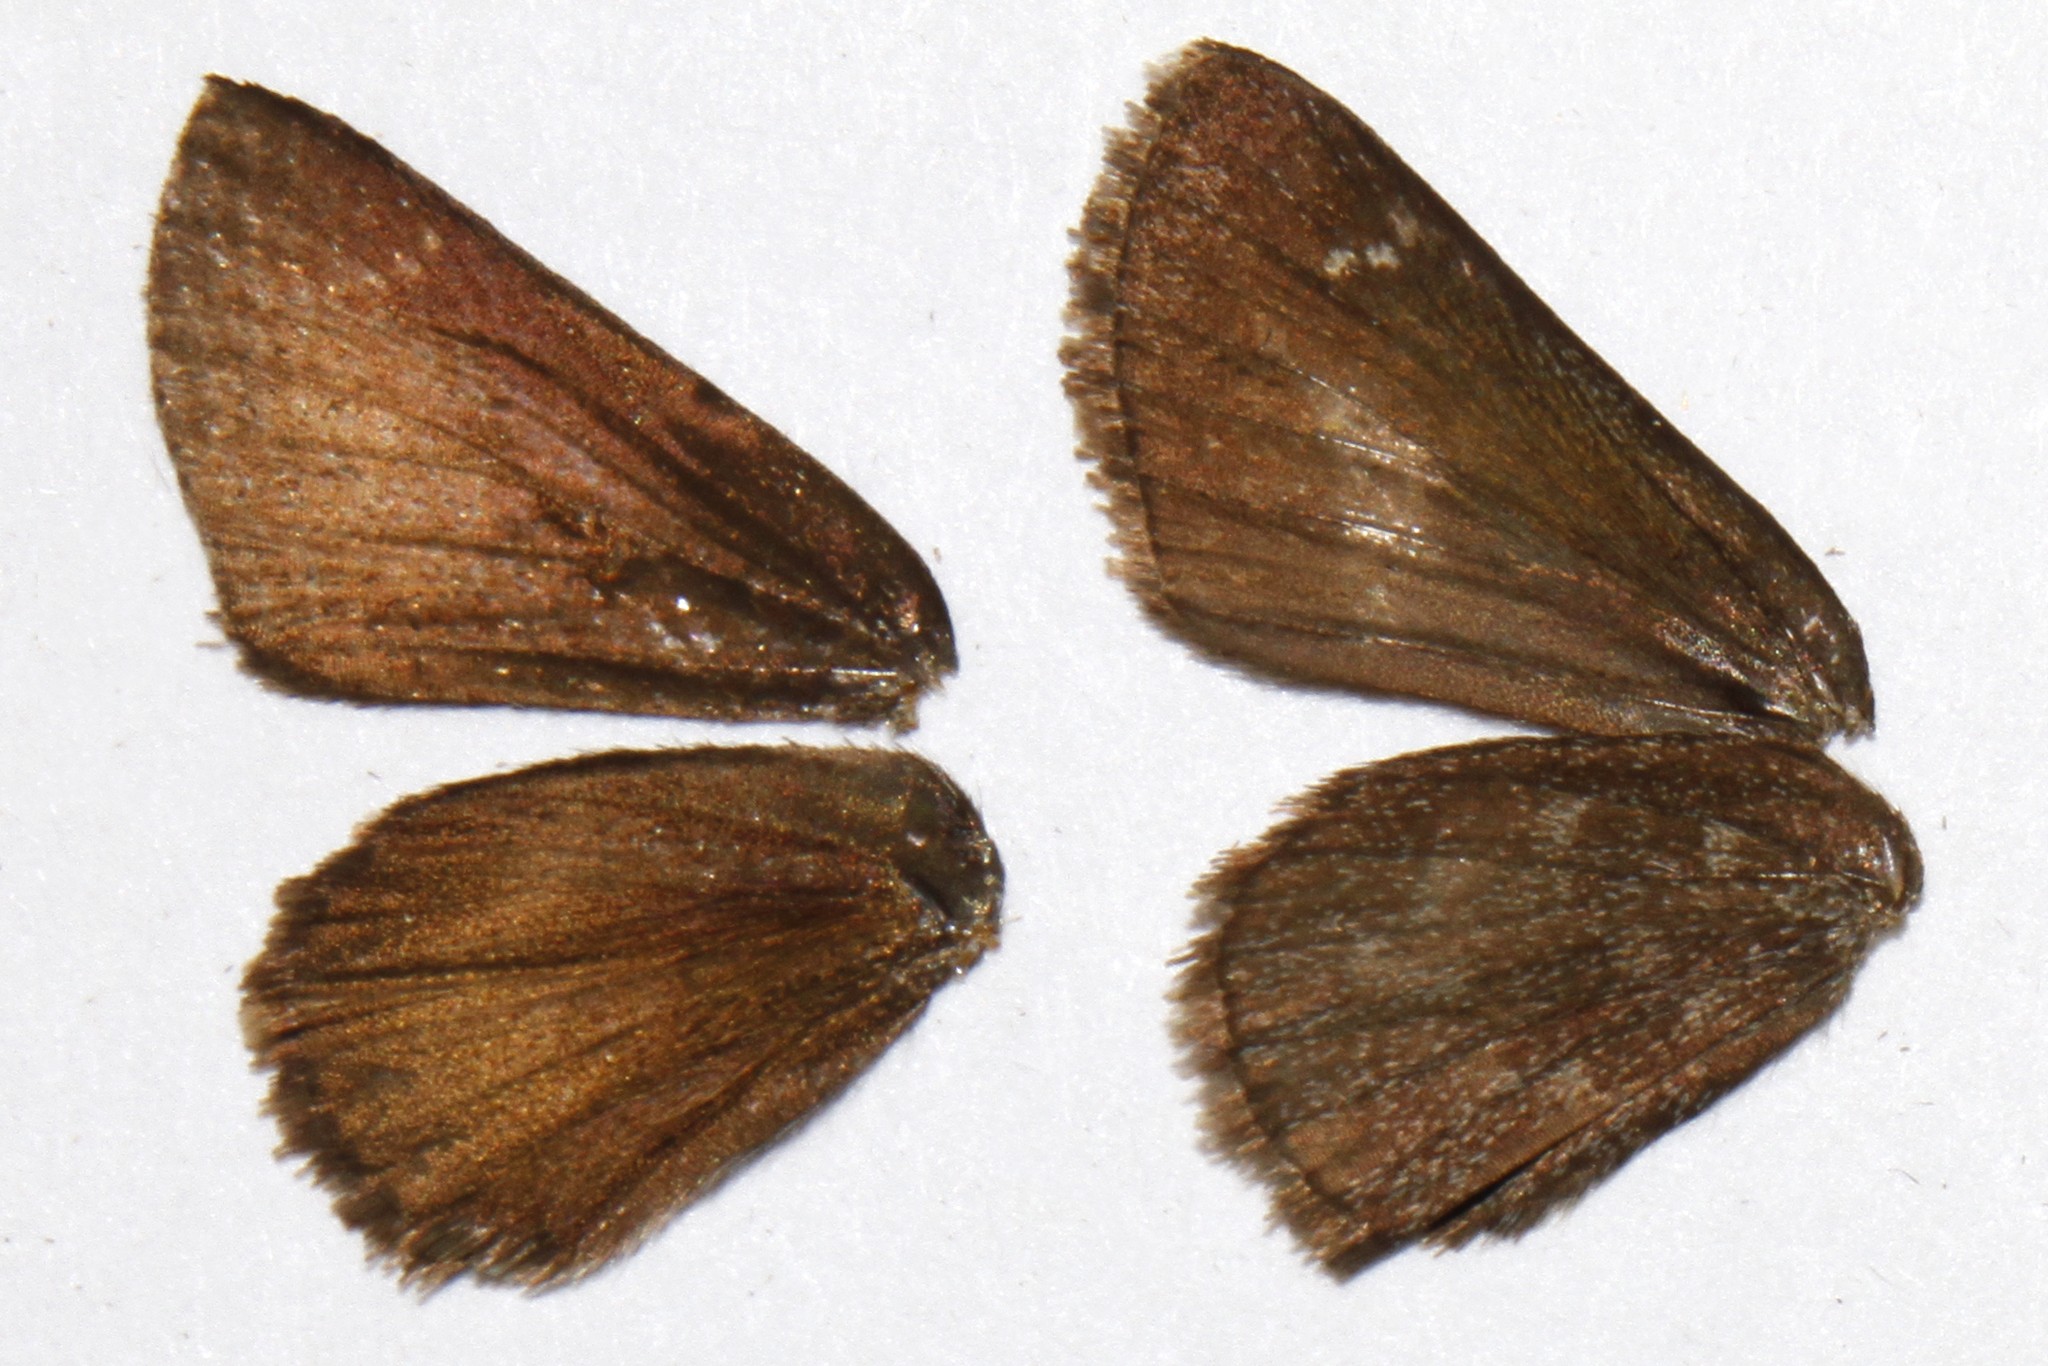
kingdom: Animalia
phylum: Arthropoda
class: Insecta
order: Lepidoptera
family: Hesperiidae
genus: Mastor
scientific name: Mastor aenus
